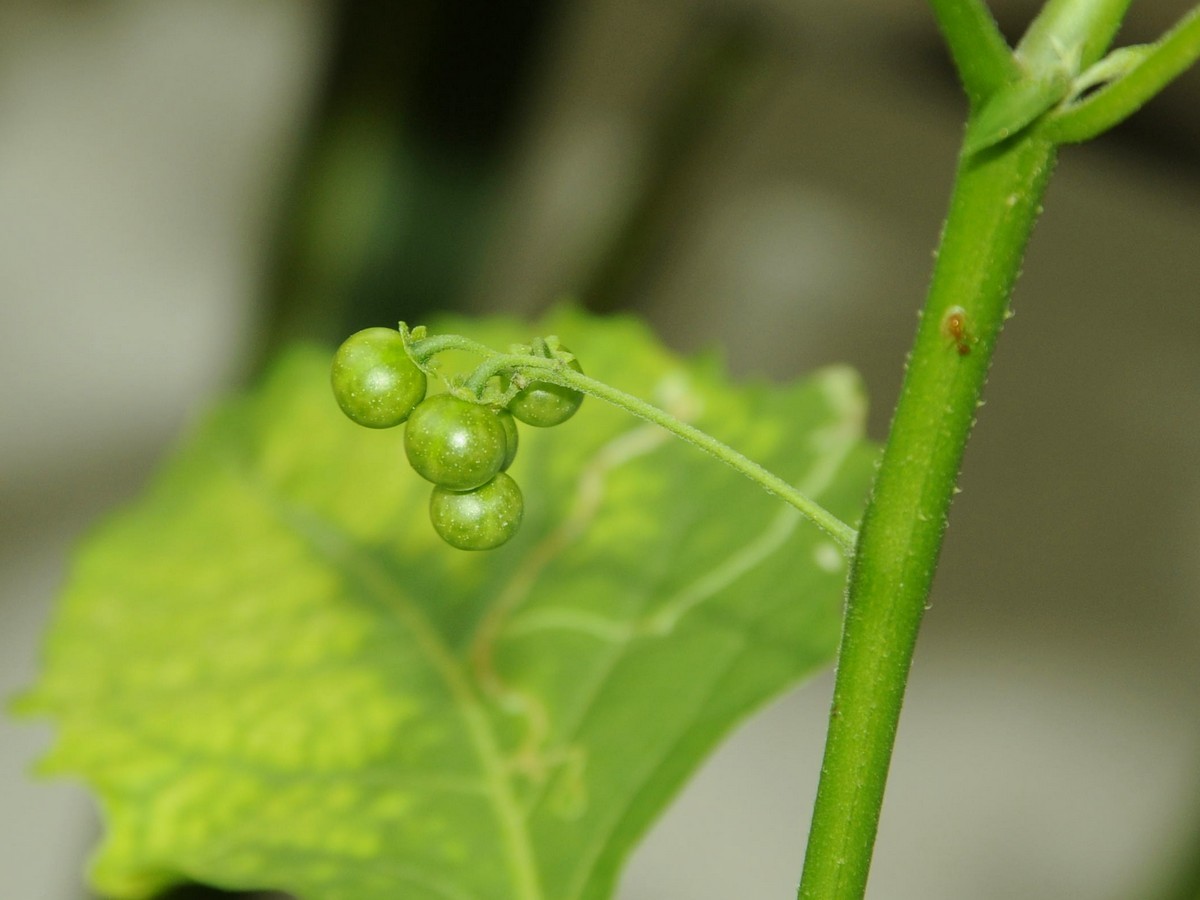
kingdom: Plantae
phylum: Tracheophyta
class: Magnoliopsida
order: Solanales
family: Solanaceae
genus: Solanum
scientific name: Solanum americanum
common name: American black nightshade
